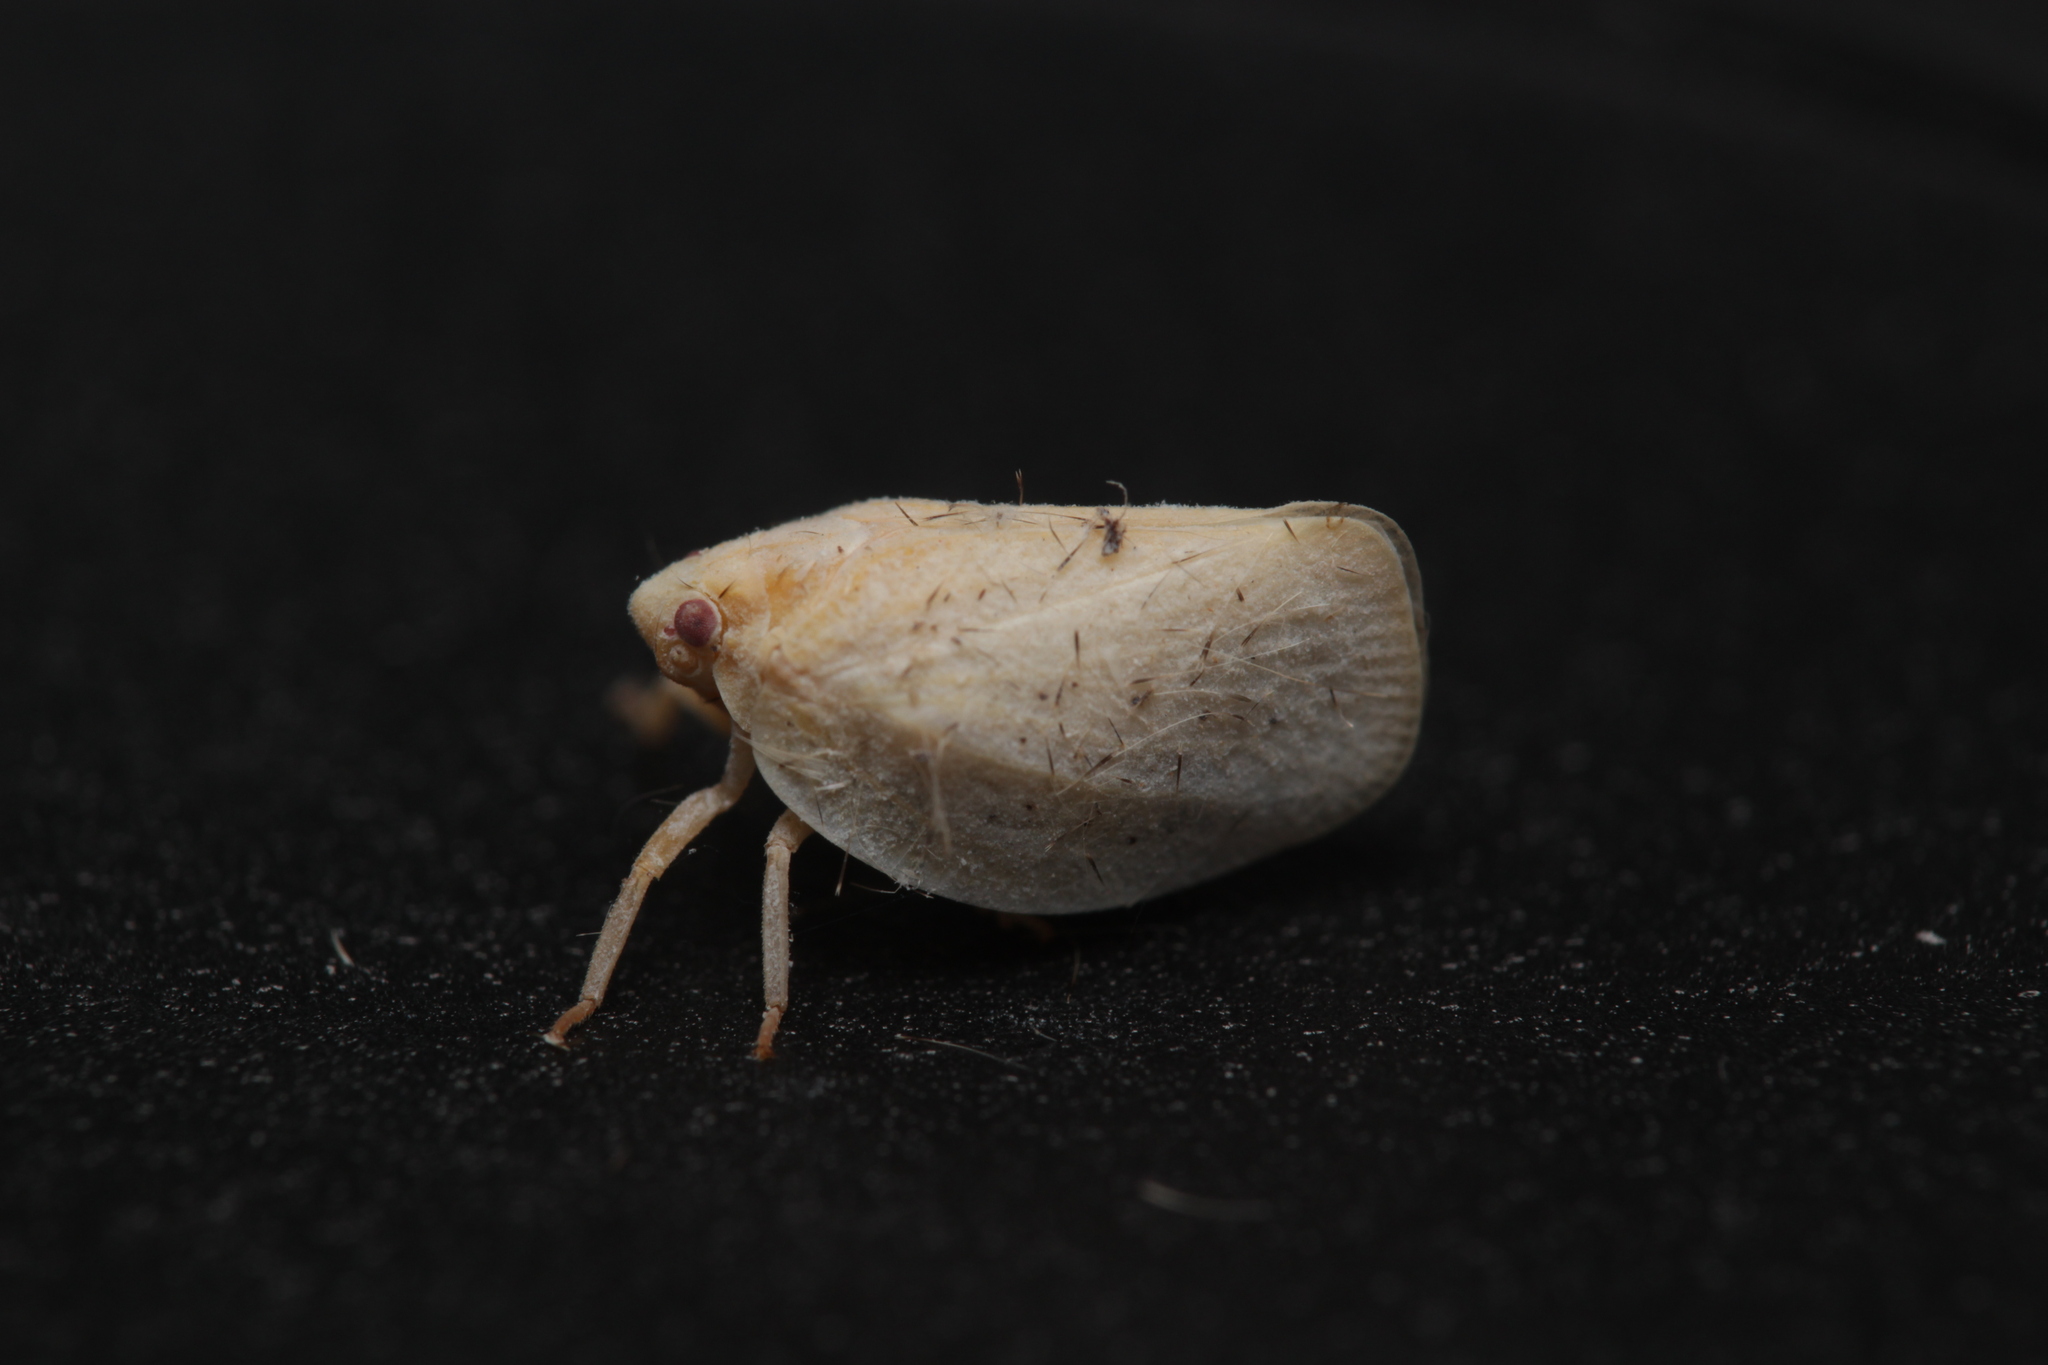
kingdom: Animalia
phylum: Arthropoda
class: Insecta
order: Hemiptera
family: Flatidae
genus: Phantia
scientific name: Phantia subquadrata
